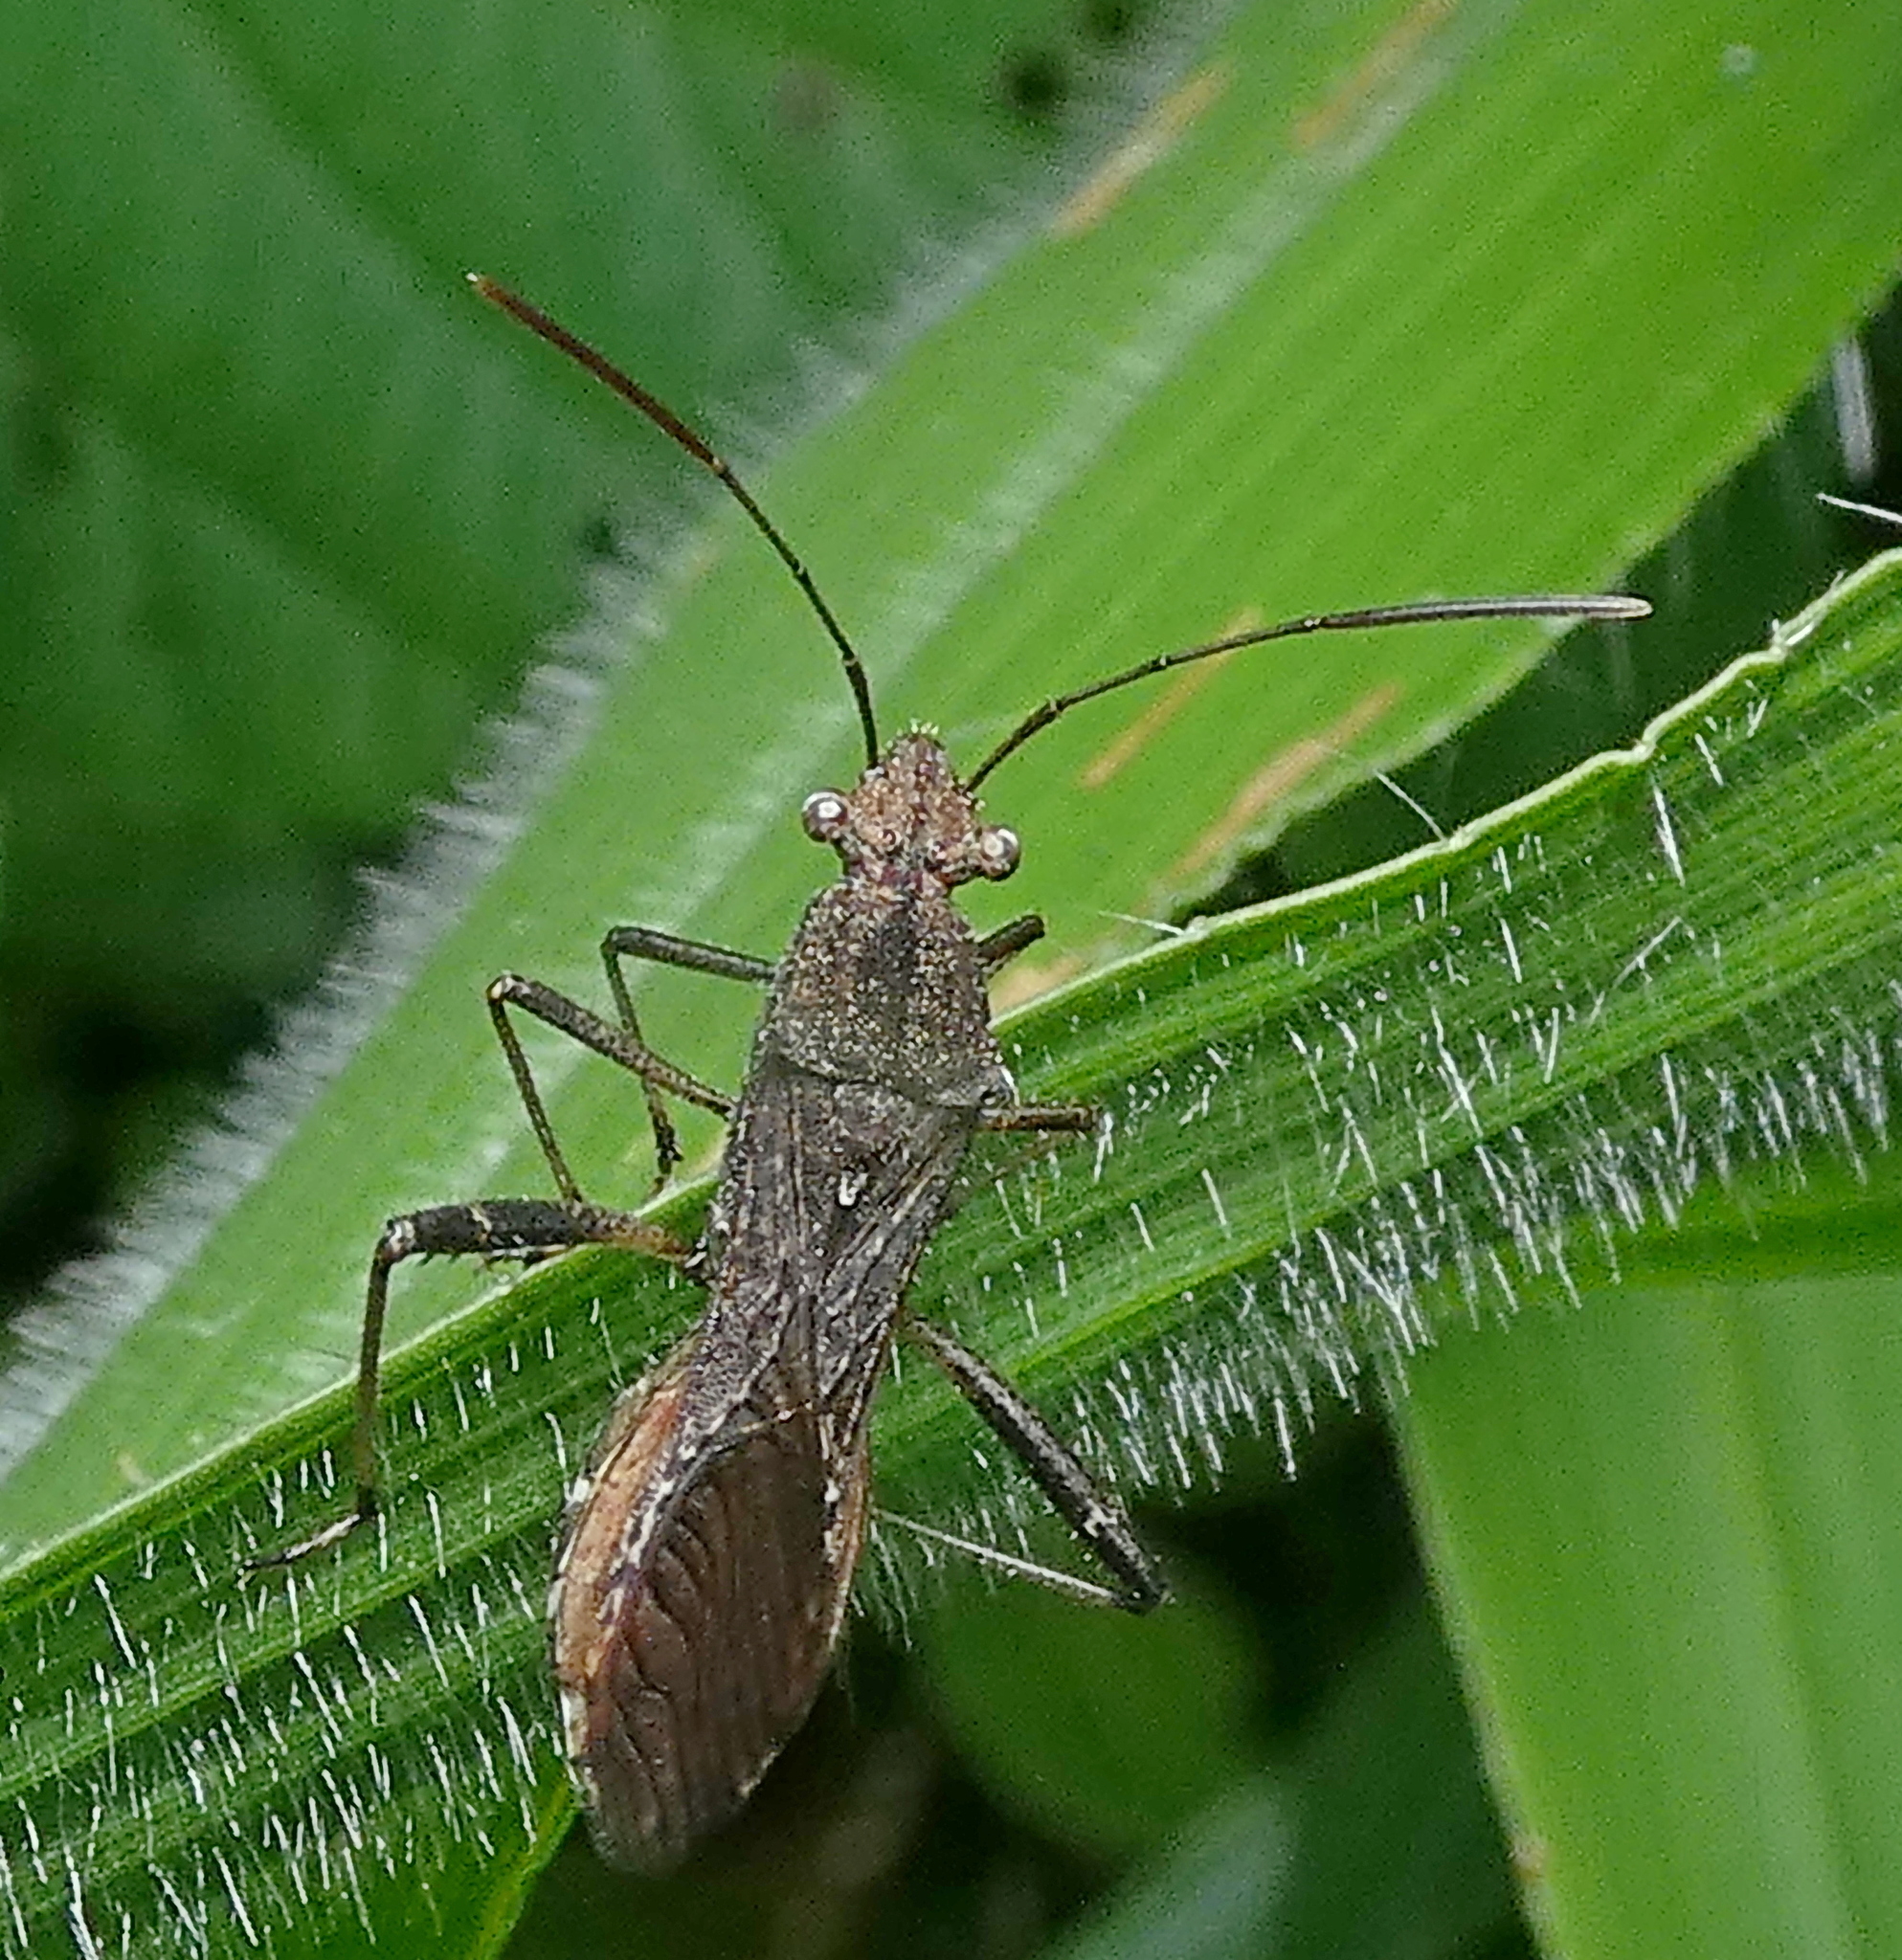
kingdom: Animalia
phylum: Arthropoda
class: Insecta
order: Hemiptera
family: Alydidae
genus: Neomegalotomus
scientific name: Neomegalotomus parvus
